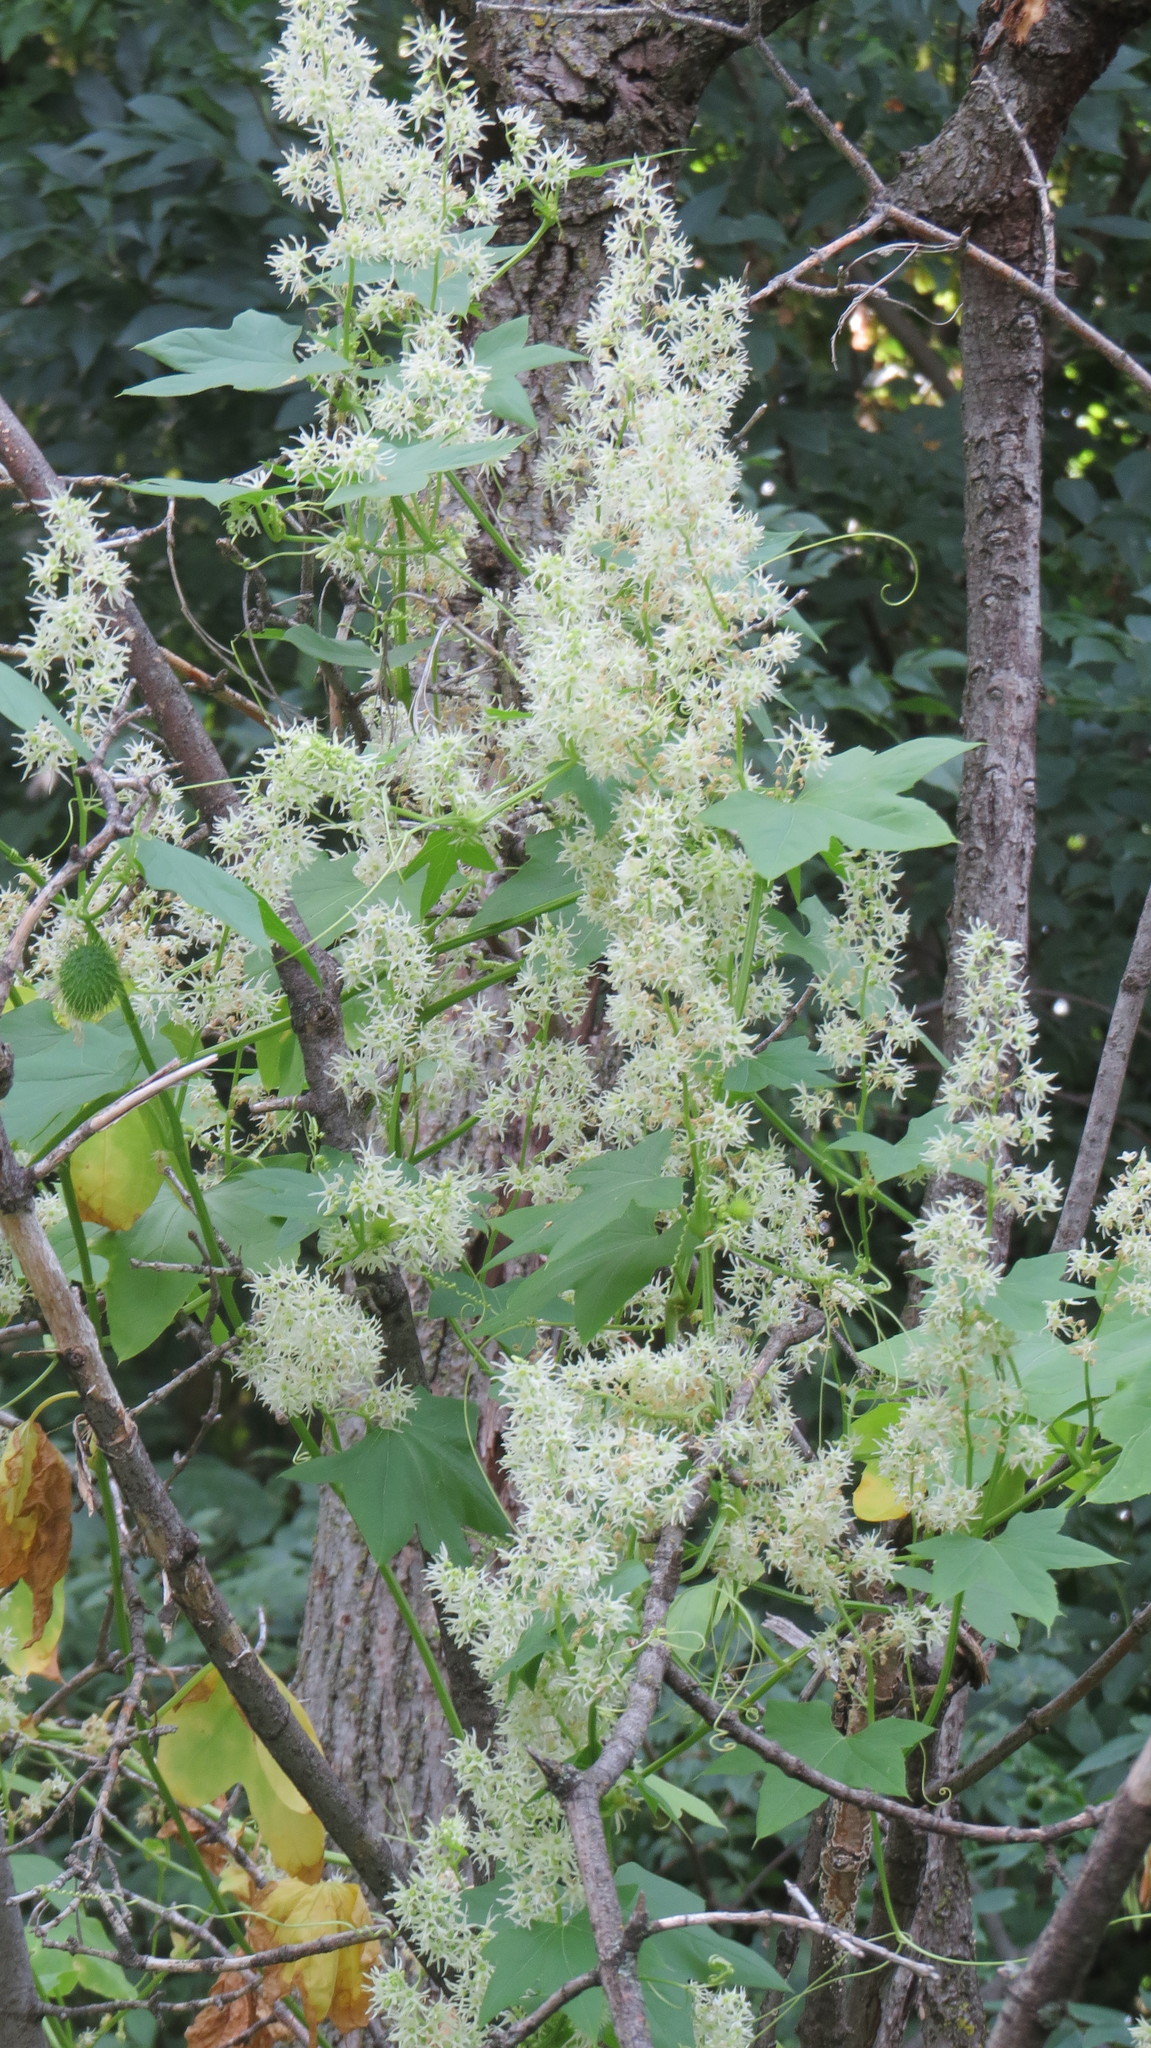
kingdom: Plantae
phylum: Tracheophyta
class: Magnoliopsida
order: Cucurbitales
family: Cucurbitaceae
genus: Echinocystis
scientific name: Echinocystis lobata
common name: Wild cucumber
